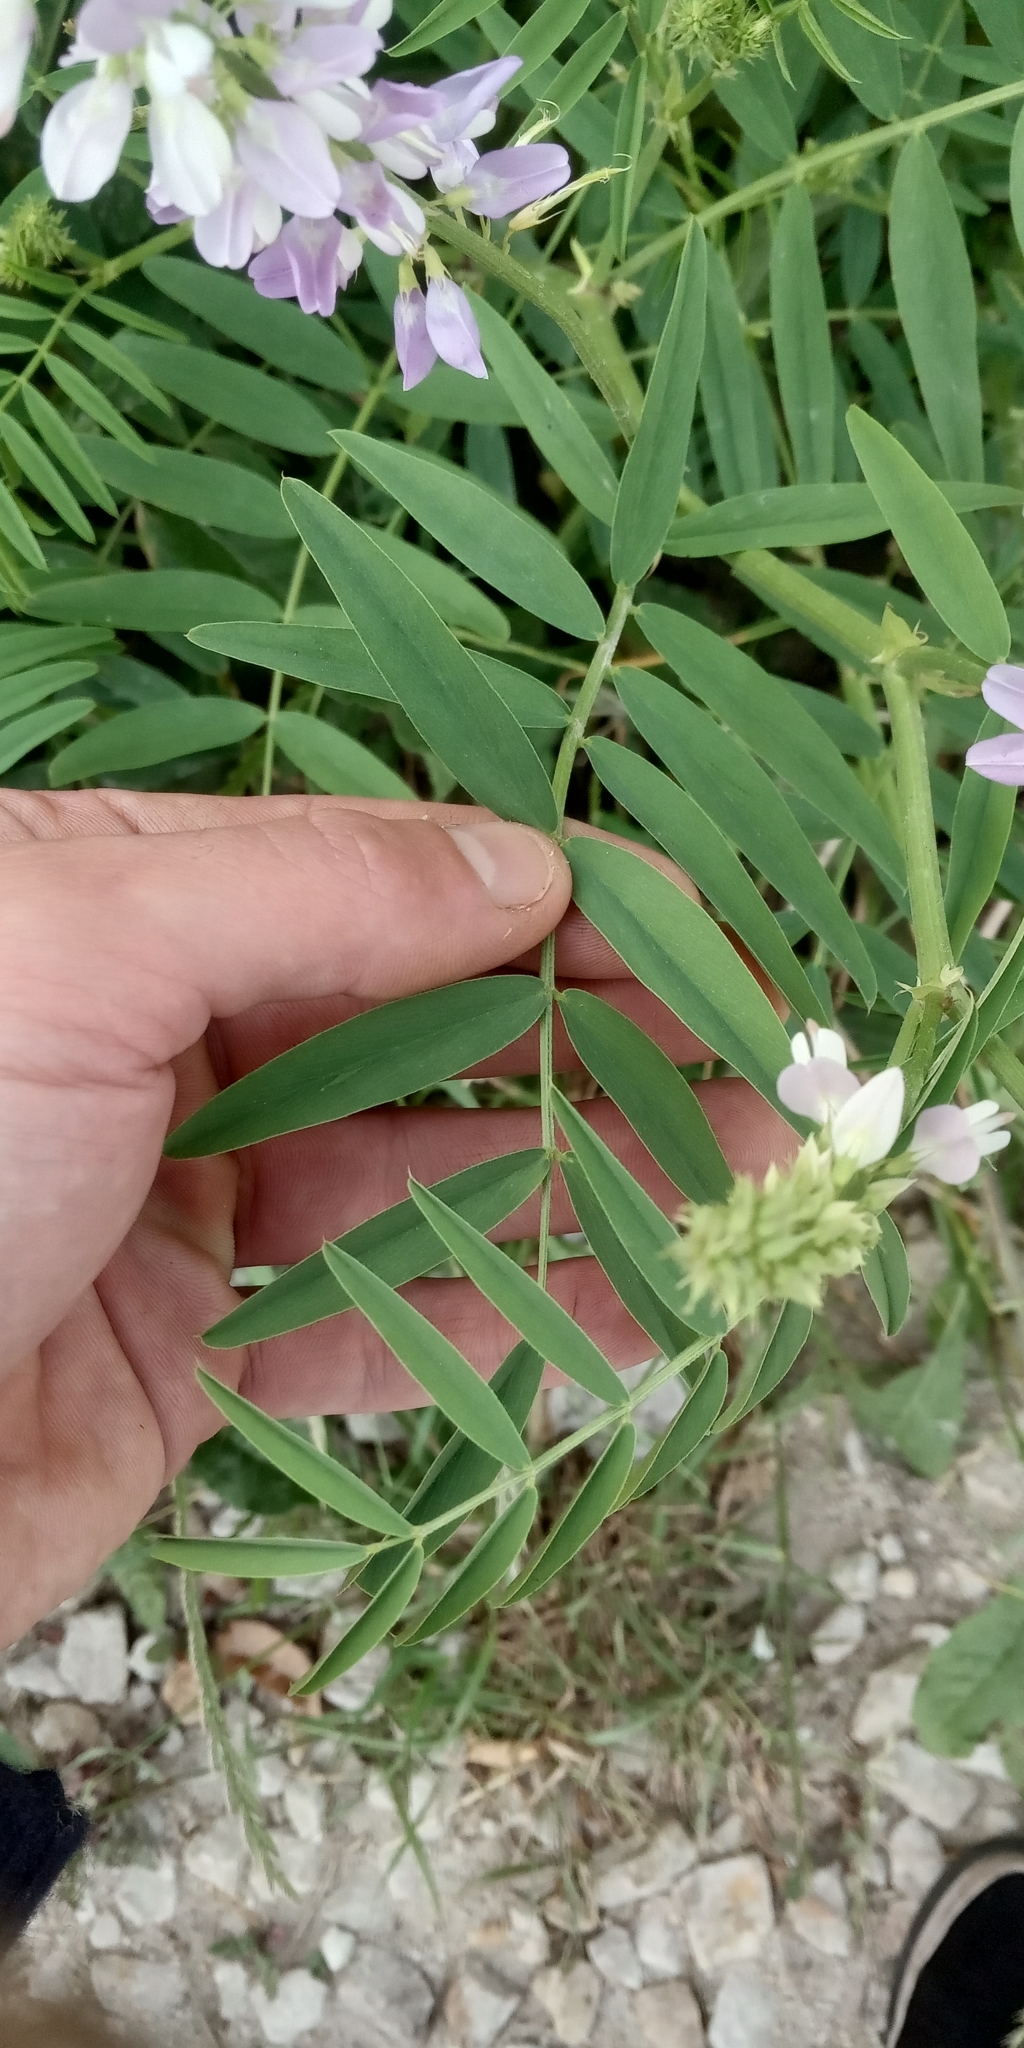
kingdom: Plantae
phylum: Tracheophyta
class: Magnoliopsida
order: Fabales
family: Fabaceae
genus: Galega
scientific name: Galega officinalis
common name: Goat's-rue
